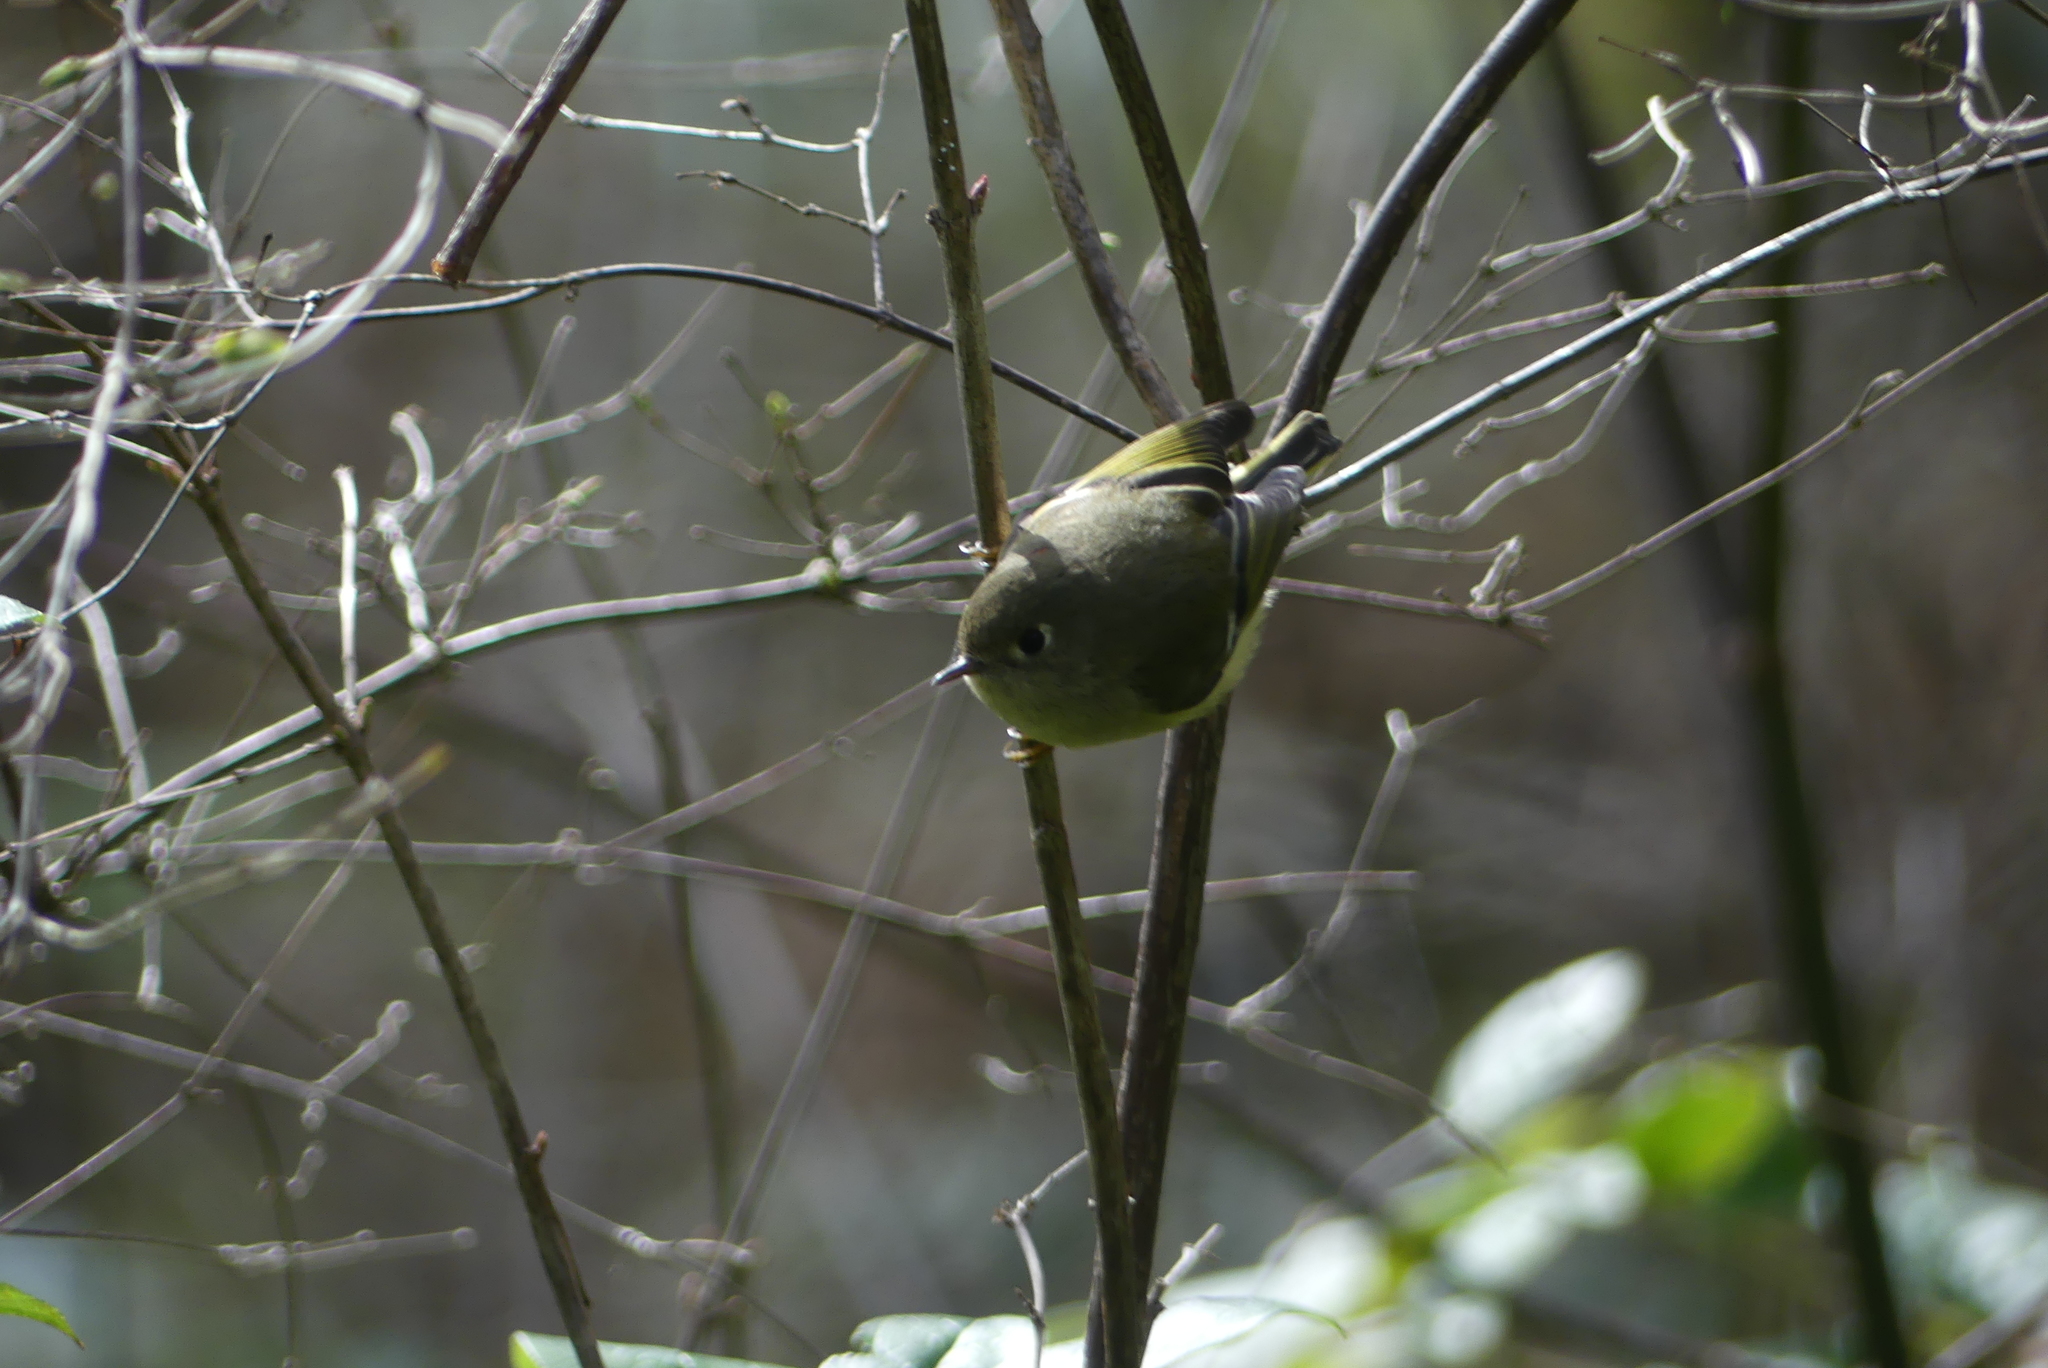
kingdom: Animalia
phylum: Chordata
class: Aves
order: Passeriformes
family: Regulidae
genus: Regulus
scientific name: Regulus calendula
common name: Ruby-crowned kinglet
